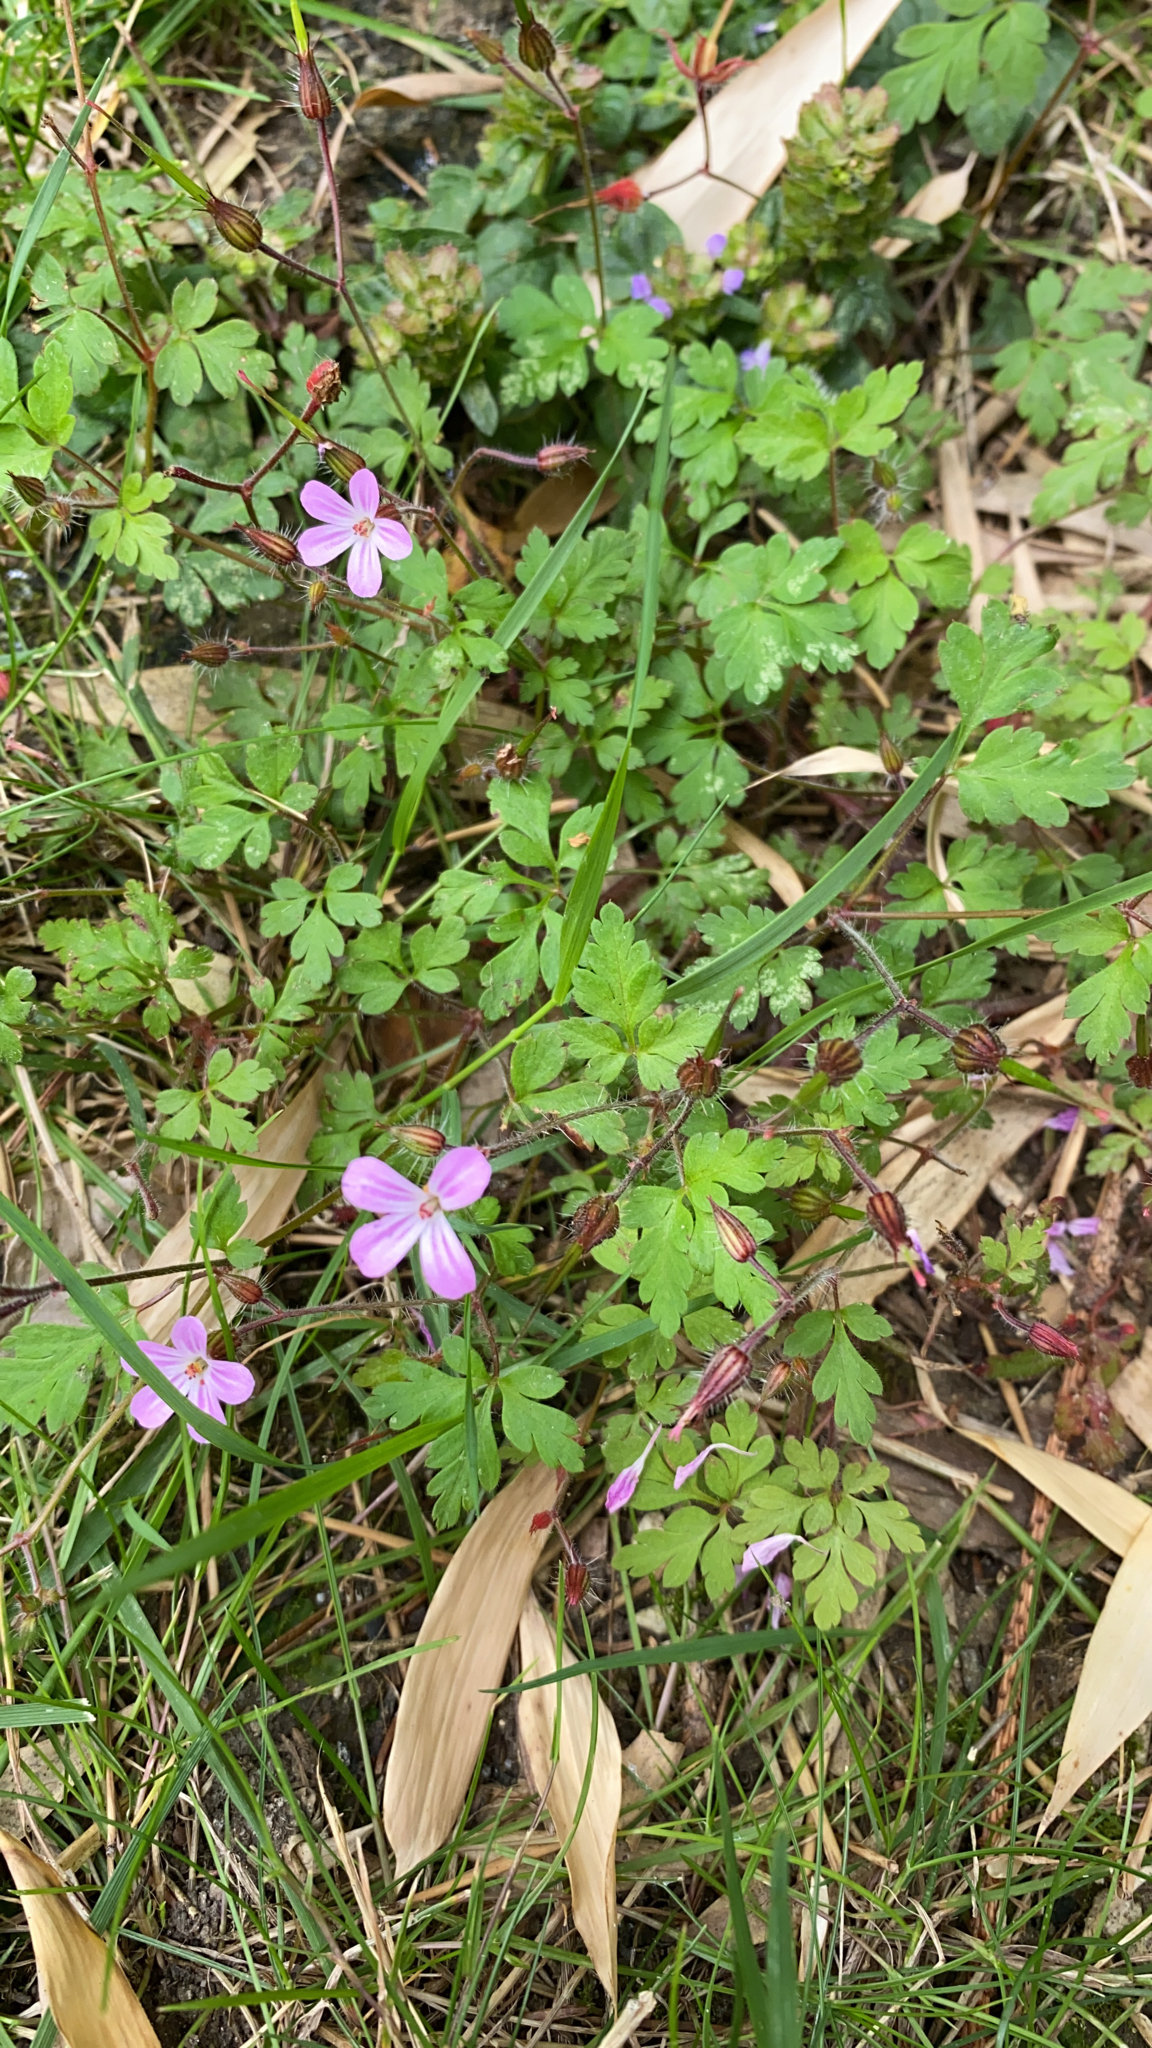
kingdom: Plantae
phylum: Tracheophyta
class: Magnoliopsida
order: Geraniales
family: Geraniaceae
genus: Geranium
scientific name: Geranium robertianum
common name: Herb-robert
